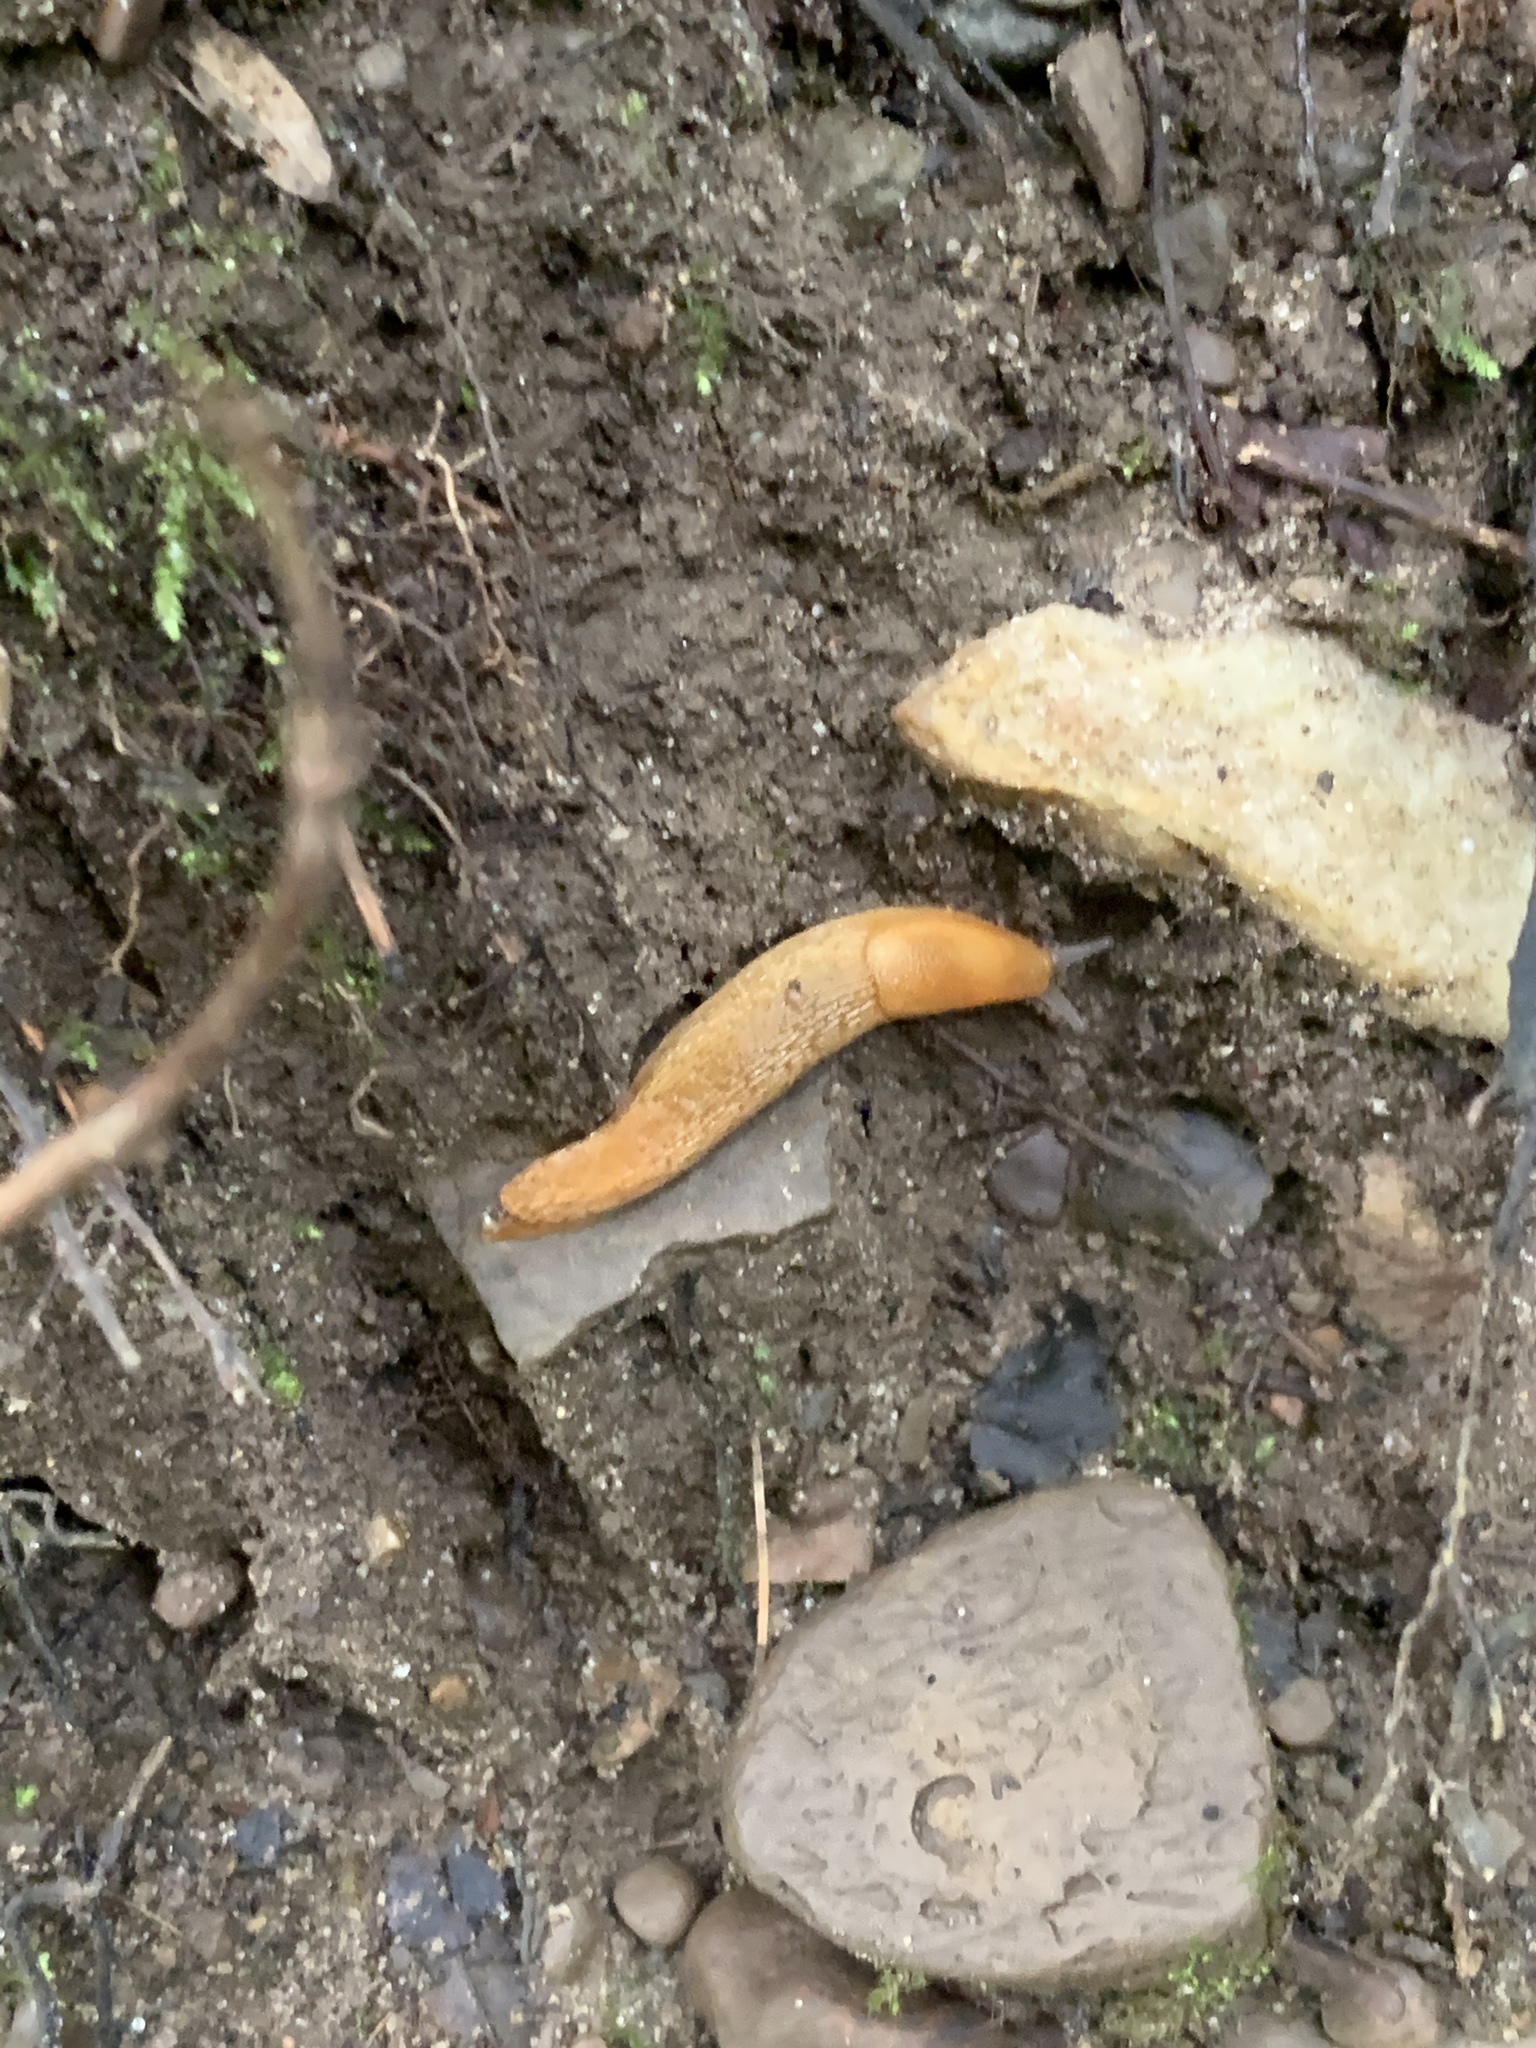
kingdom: Animalia
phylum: Mollusca
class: Gastropoda
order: Stylommatophora
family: Arionidae
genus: Arion
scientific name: Arion subfuscus
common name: Dusky arion
